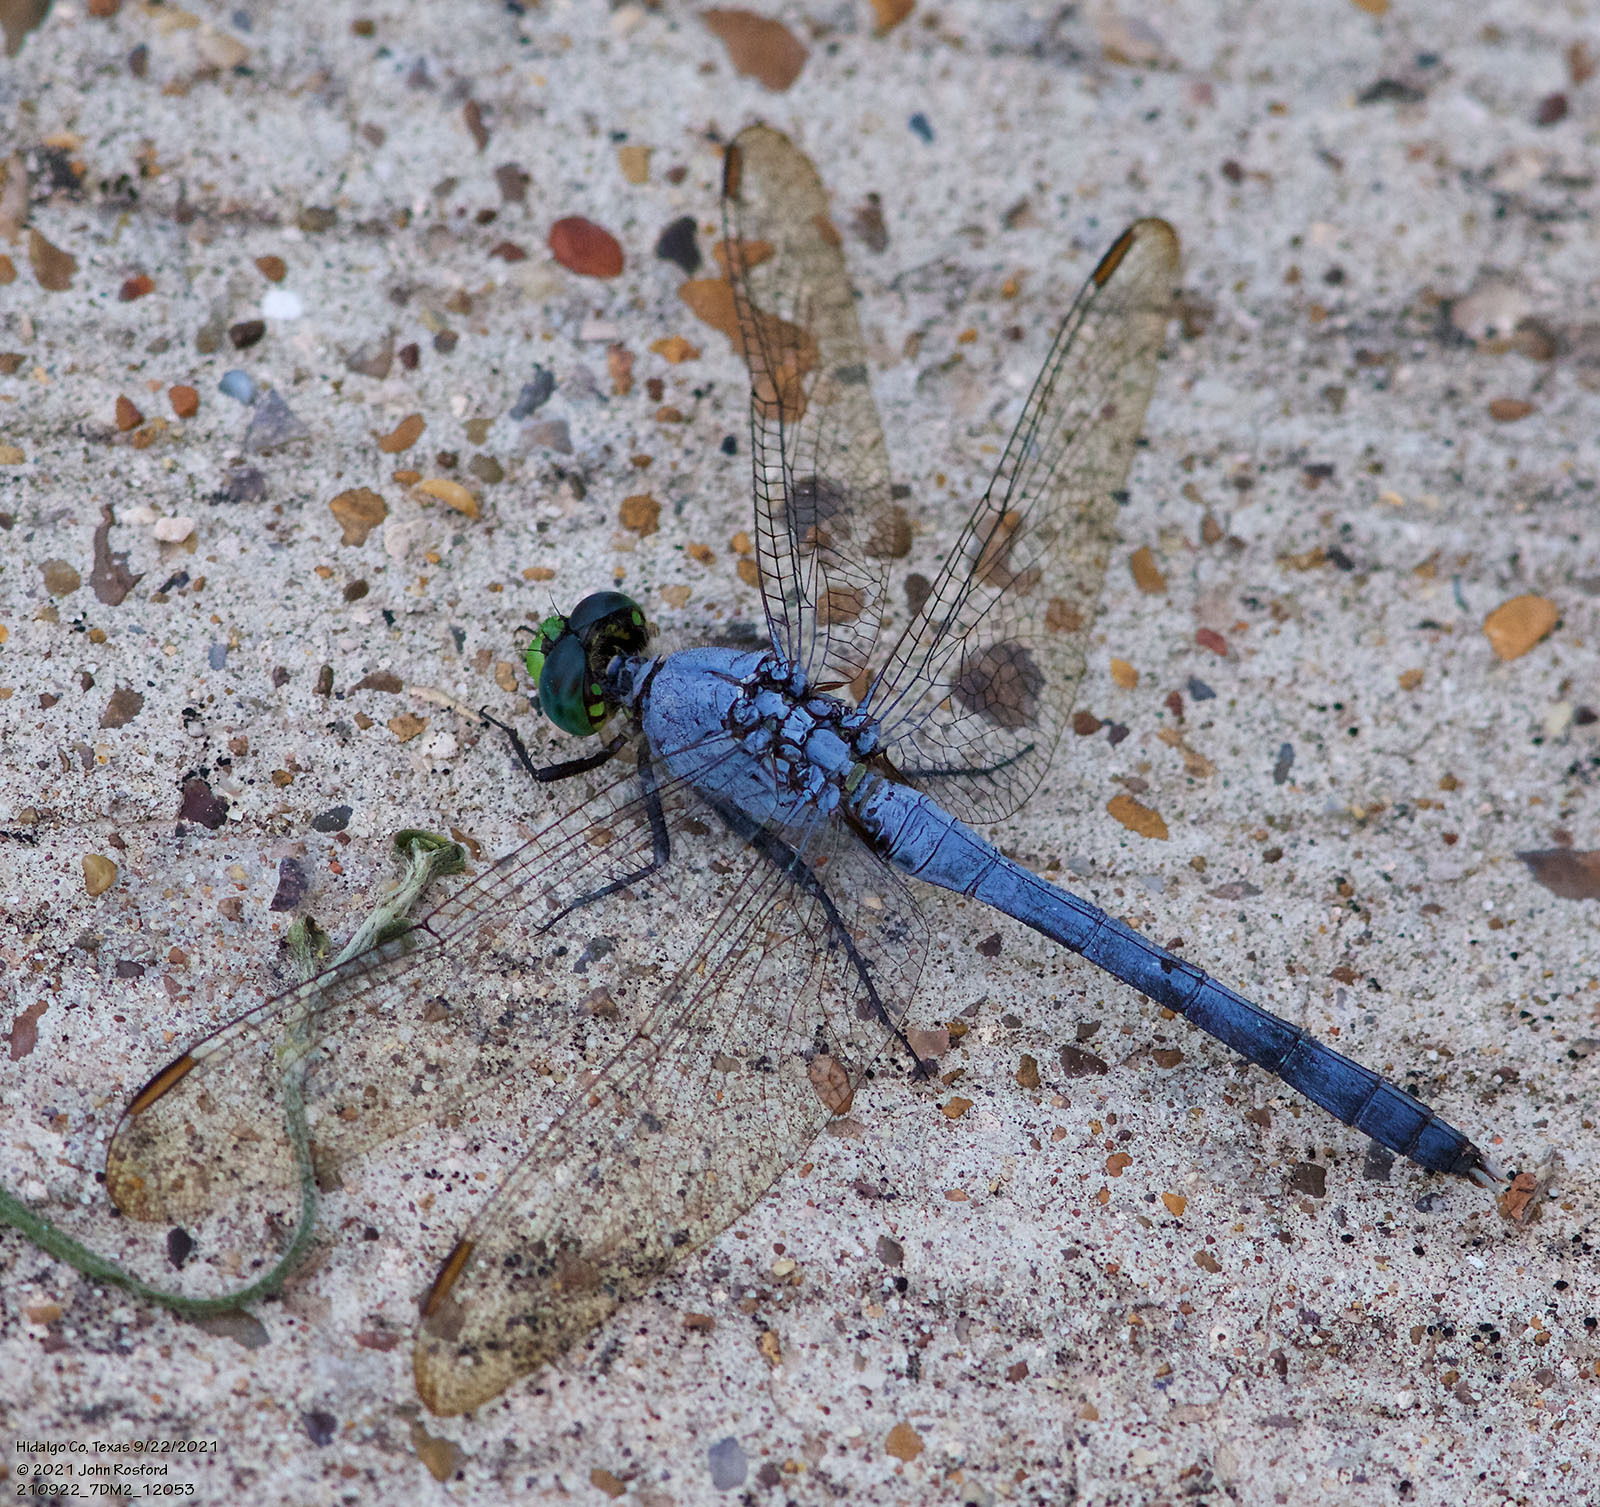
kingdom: Animalia
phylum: Arthropoda
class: Insecta
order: Odonata
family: Libellulidae
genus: Erythemis
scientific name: Erythemis simplicicollis
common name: Eastern pondhawk
